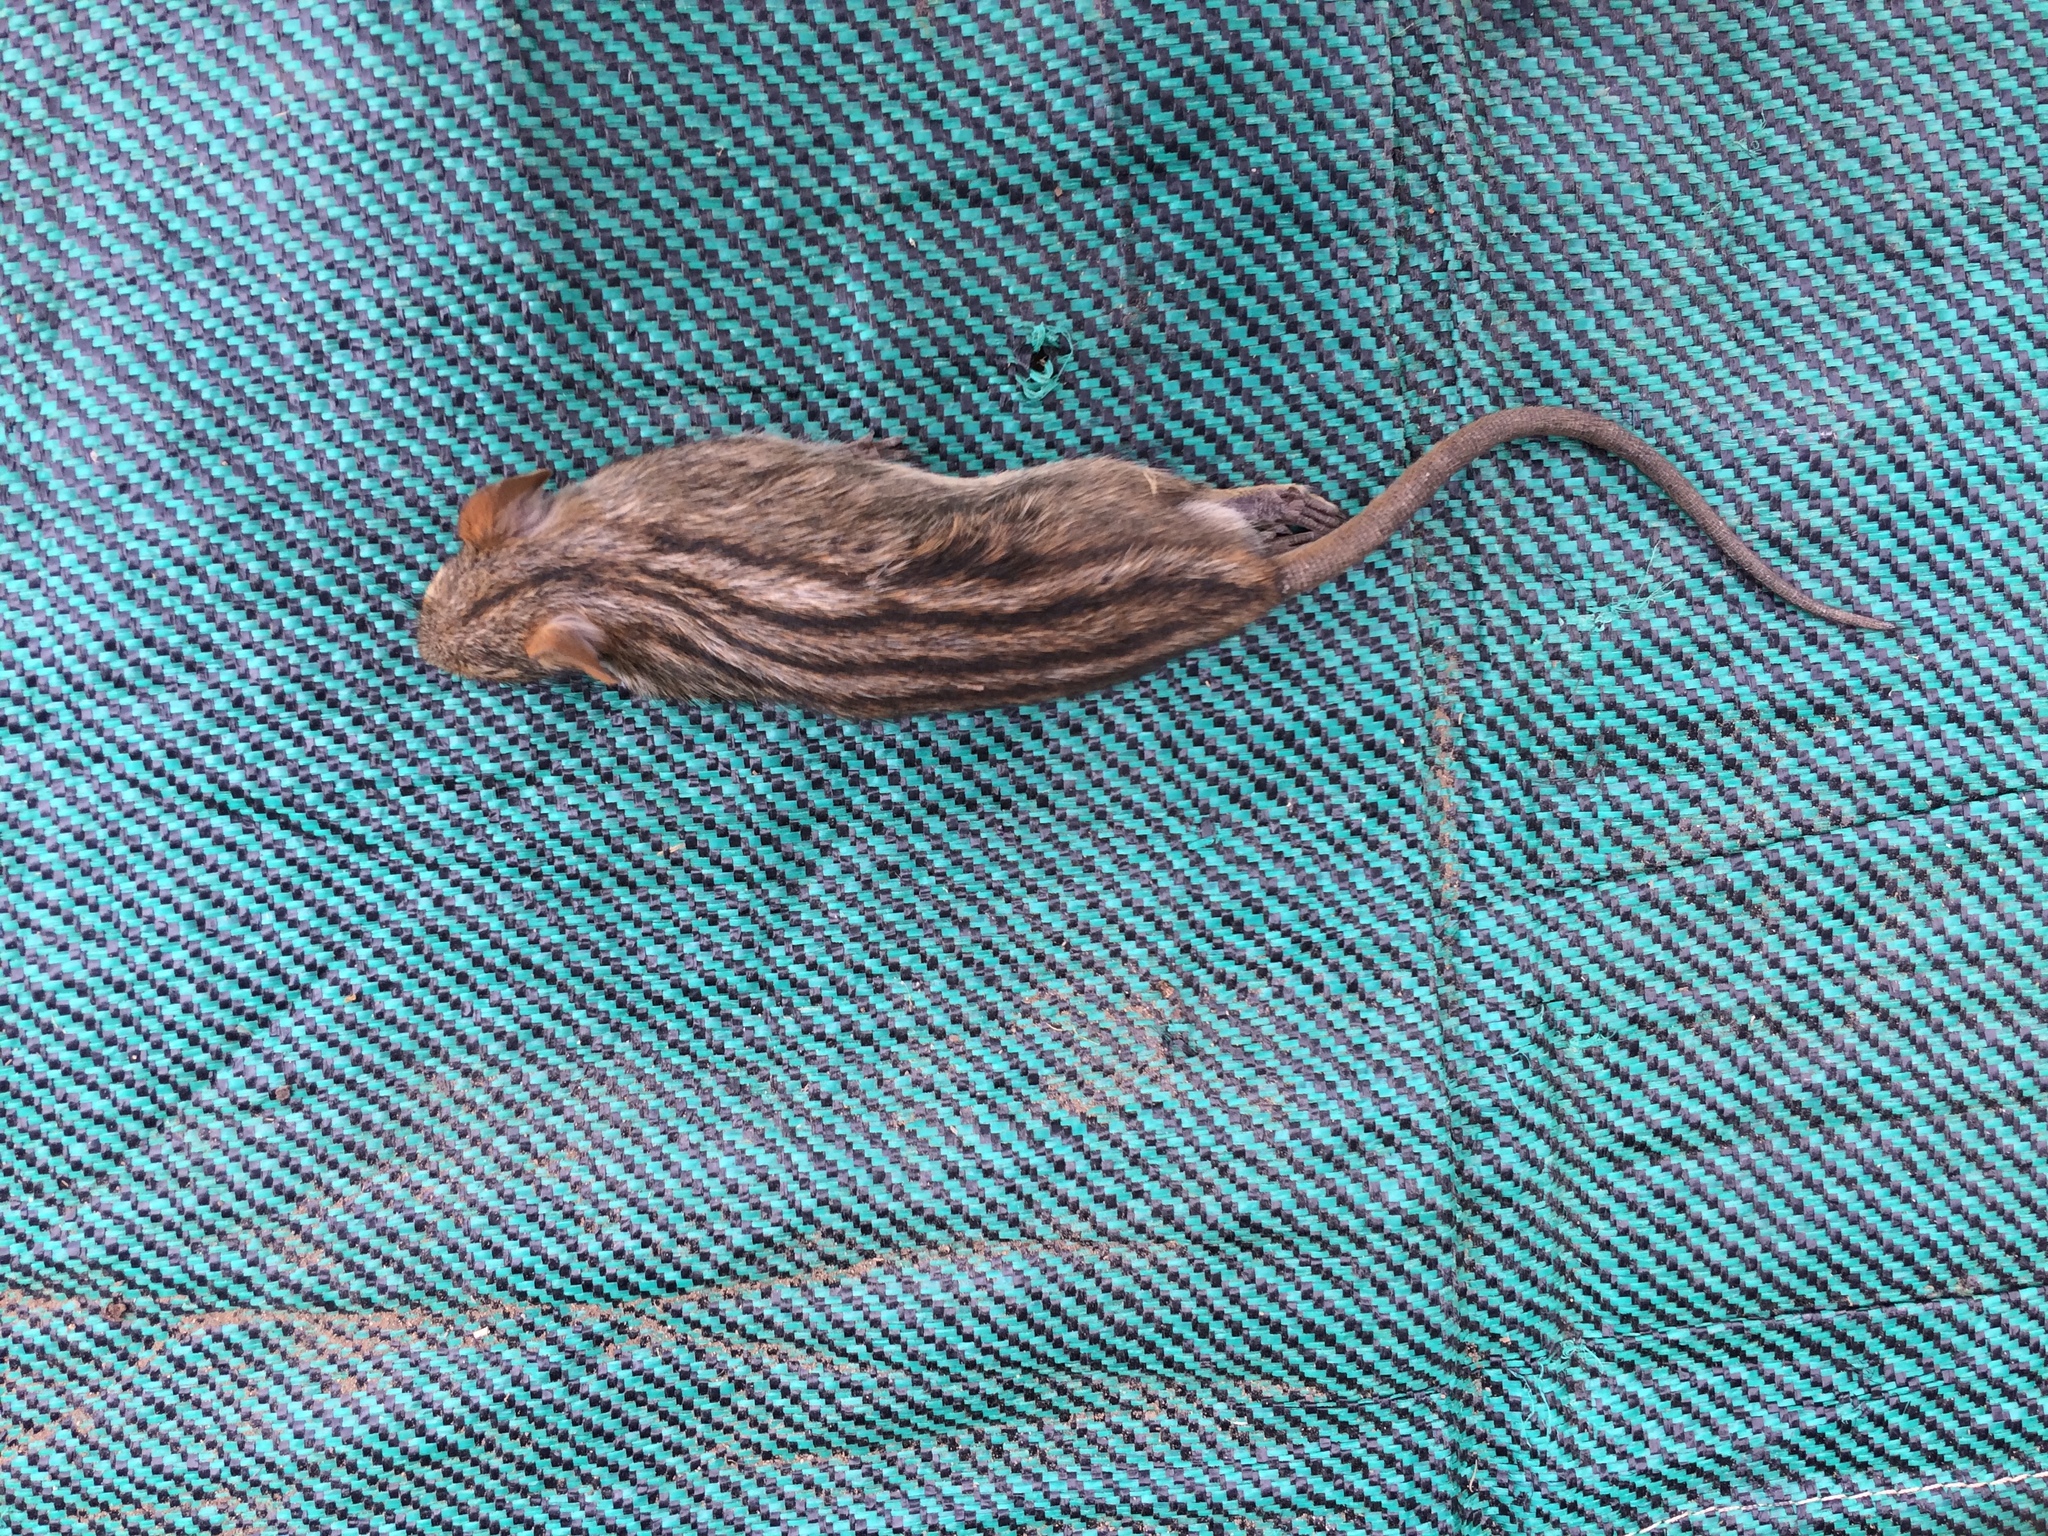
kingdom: Animalia
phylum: Chordata
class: Mammalia
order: Rodentia
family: Muridae
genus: Rhabdomys
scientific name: Rhabdomys pumilio
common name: Xeric four-striped grass rat
